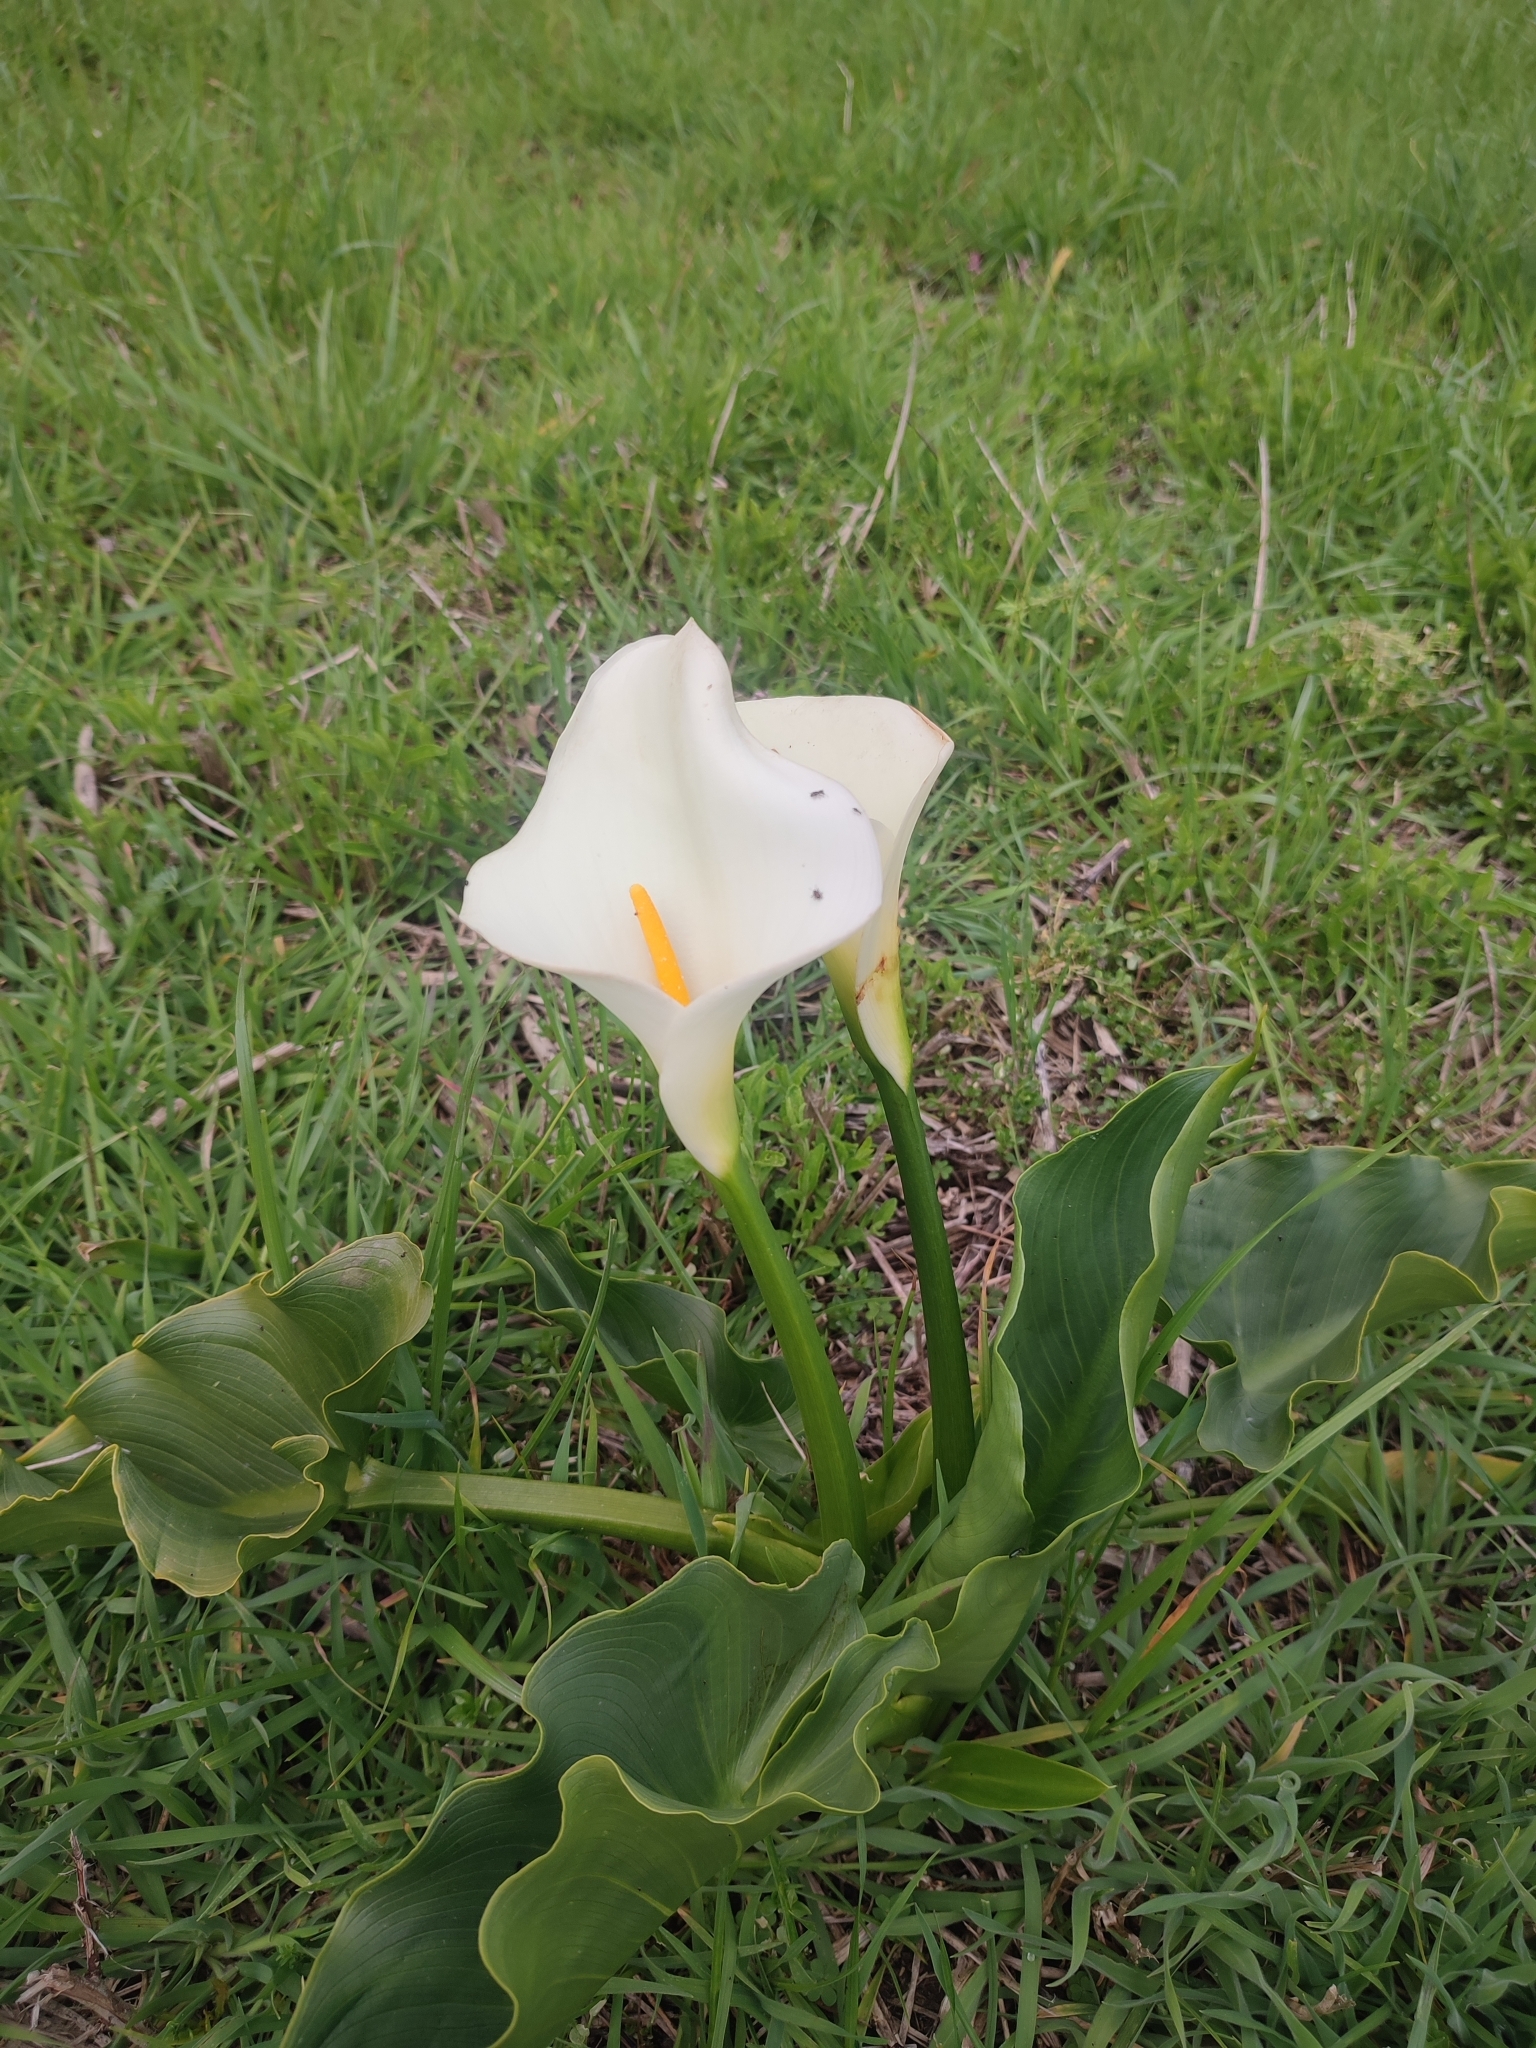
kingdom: Plantae
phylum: Tracheophyta
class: Liliopsida
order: Alismatales
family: Araceae
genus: Zantedeschia
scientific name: Zantedeschia aethiopica
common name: Altar-lily
